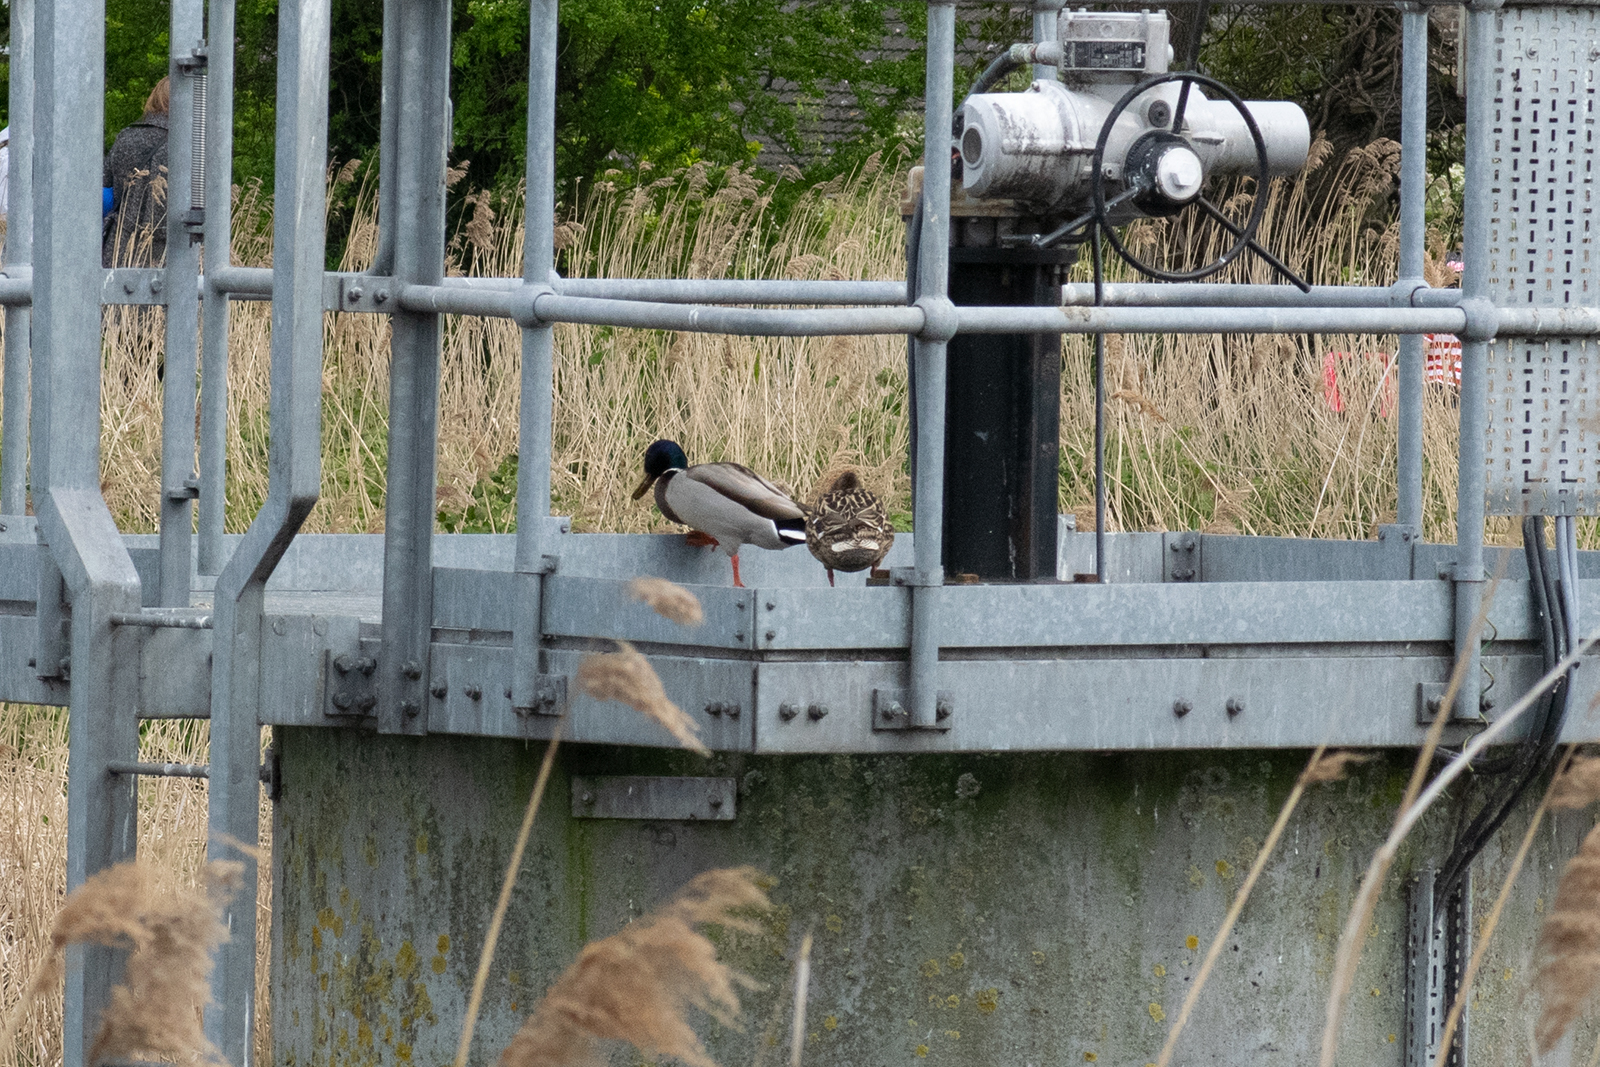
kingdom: Animalia
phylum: Chordata
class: Aves
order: Anseriformes
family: Anatidae
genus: Anas
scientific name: Anas platyrhynchos
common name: Mallard
